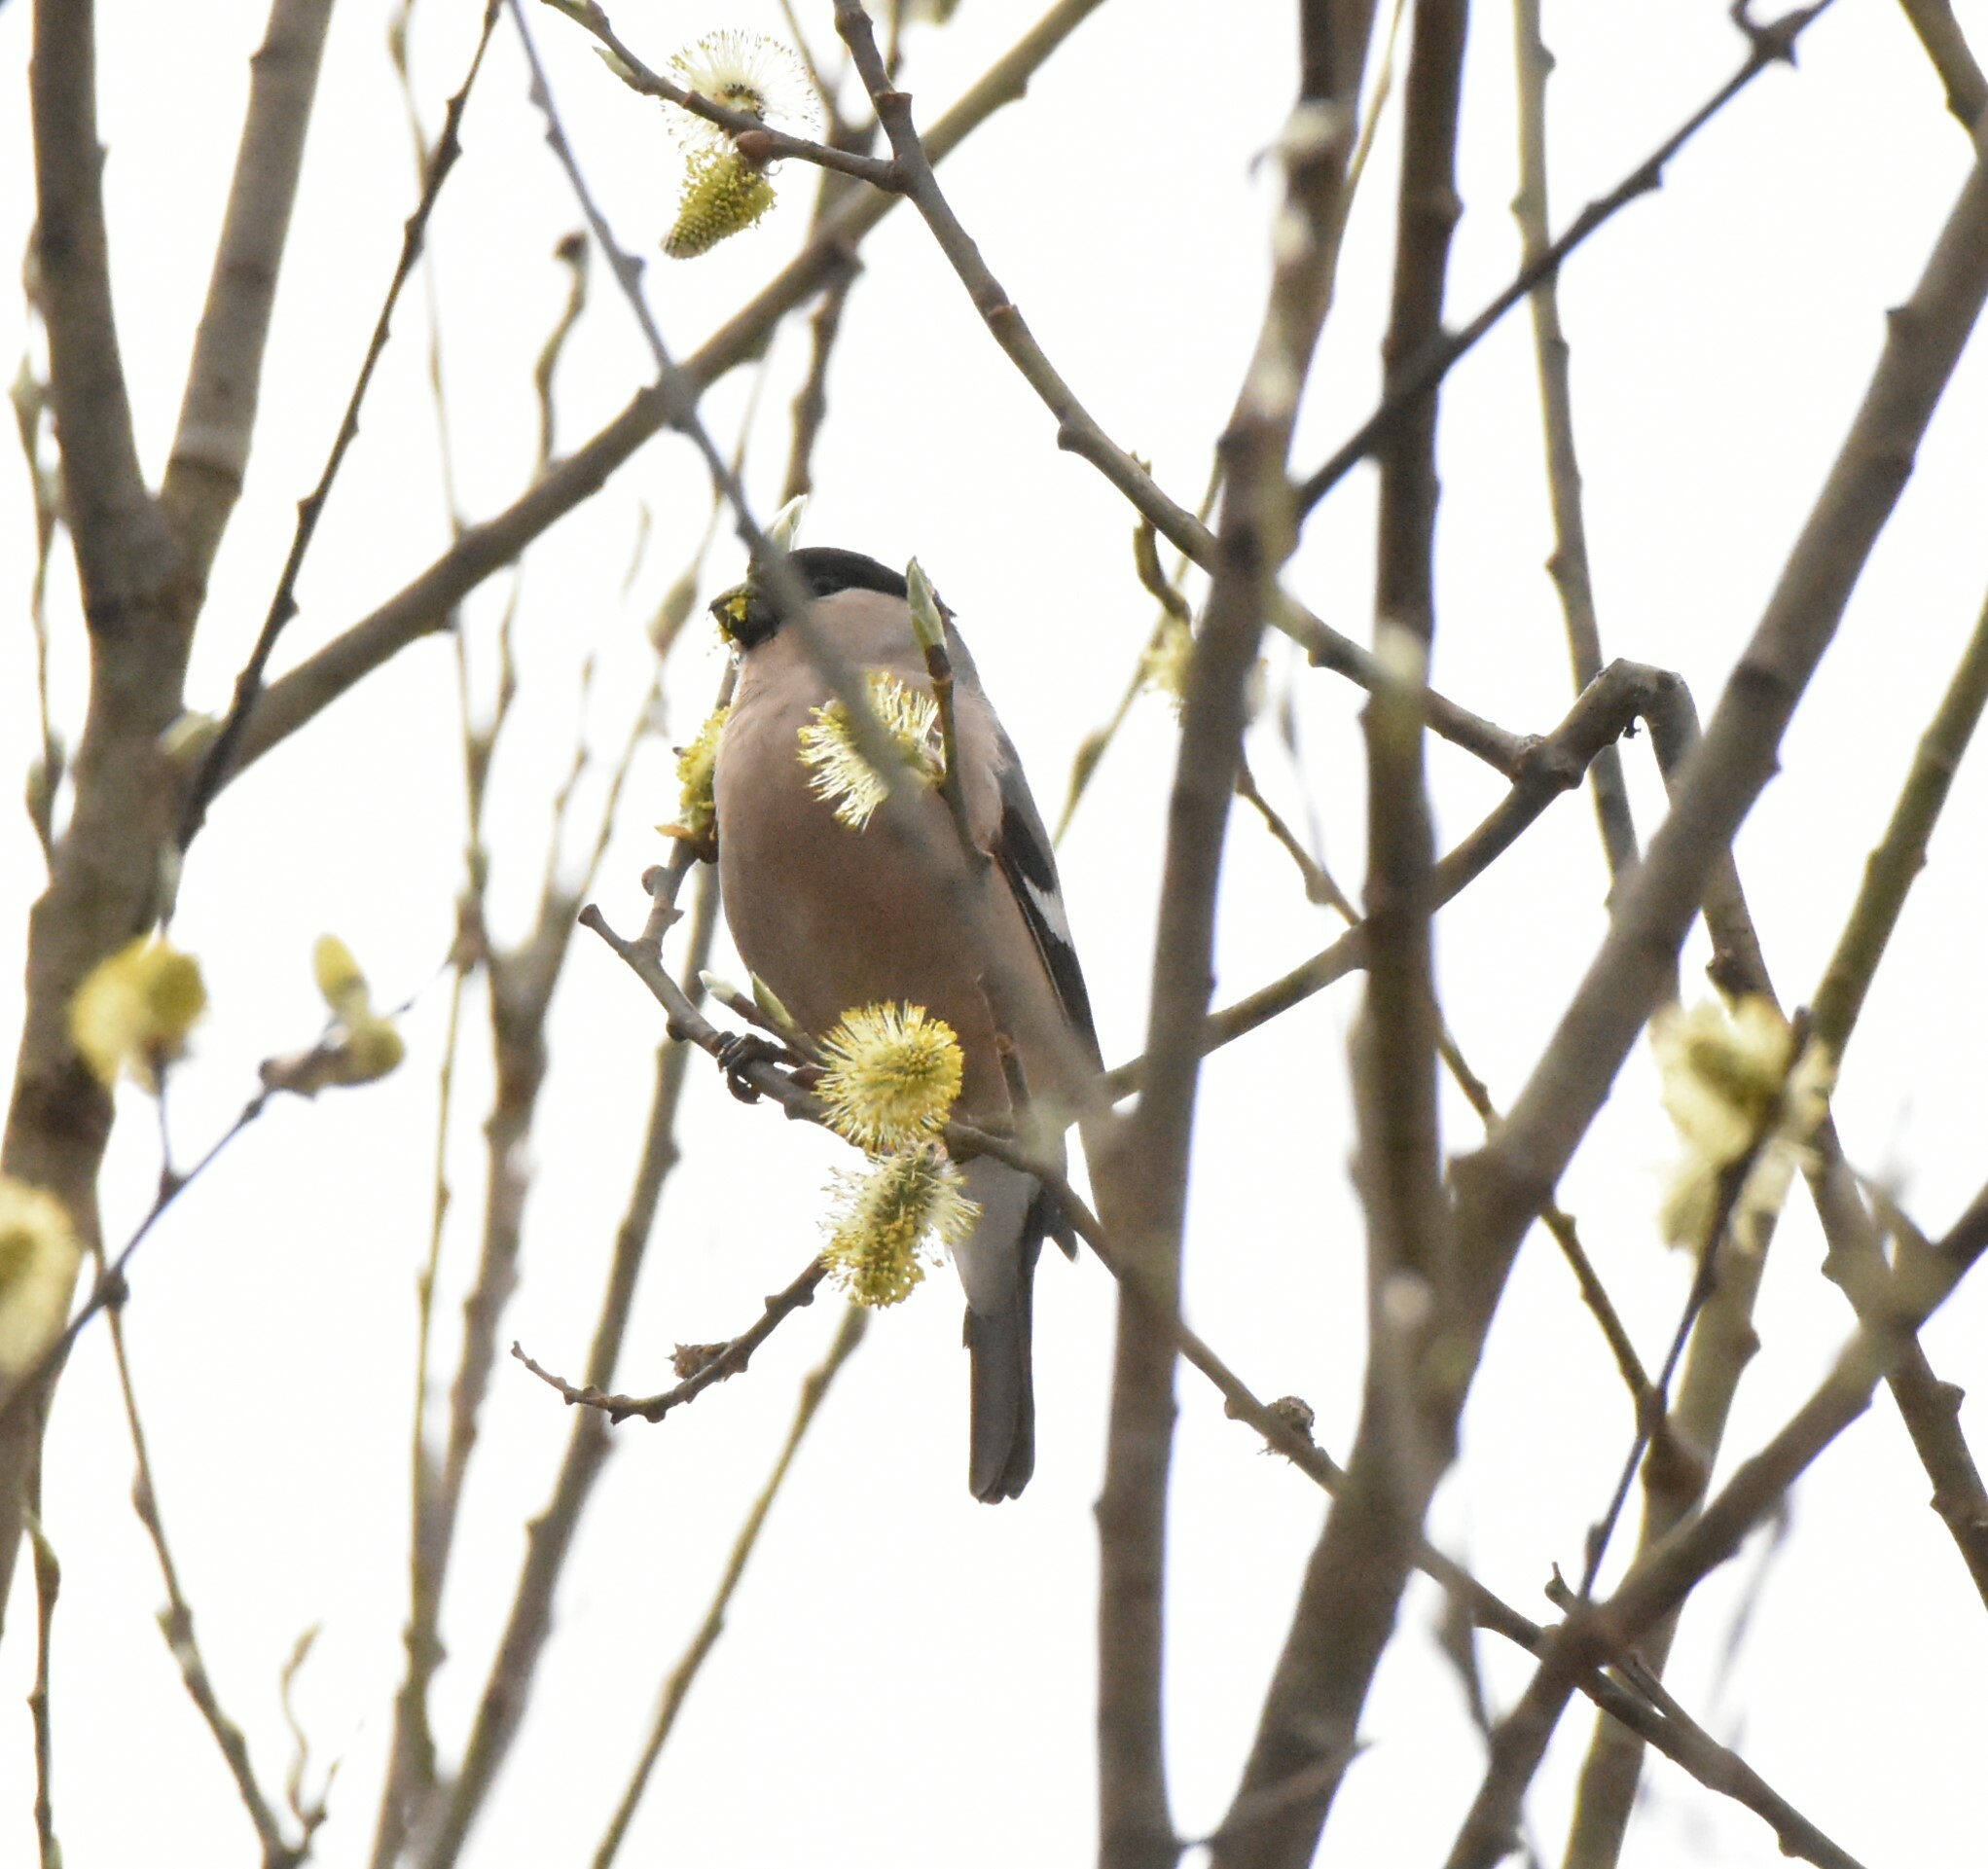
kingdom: Animalia
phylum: Chordata
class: Aves
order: Passeriformes
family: Fringillidae
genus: Pyrrhula
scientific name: Pyrrhula pyrrhula
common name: Eurasian bullfinch
